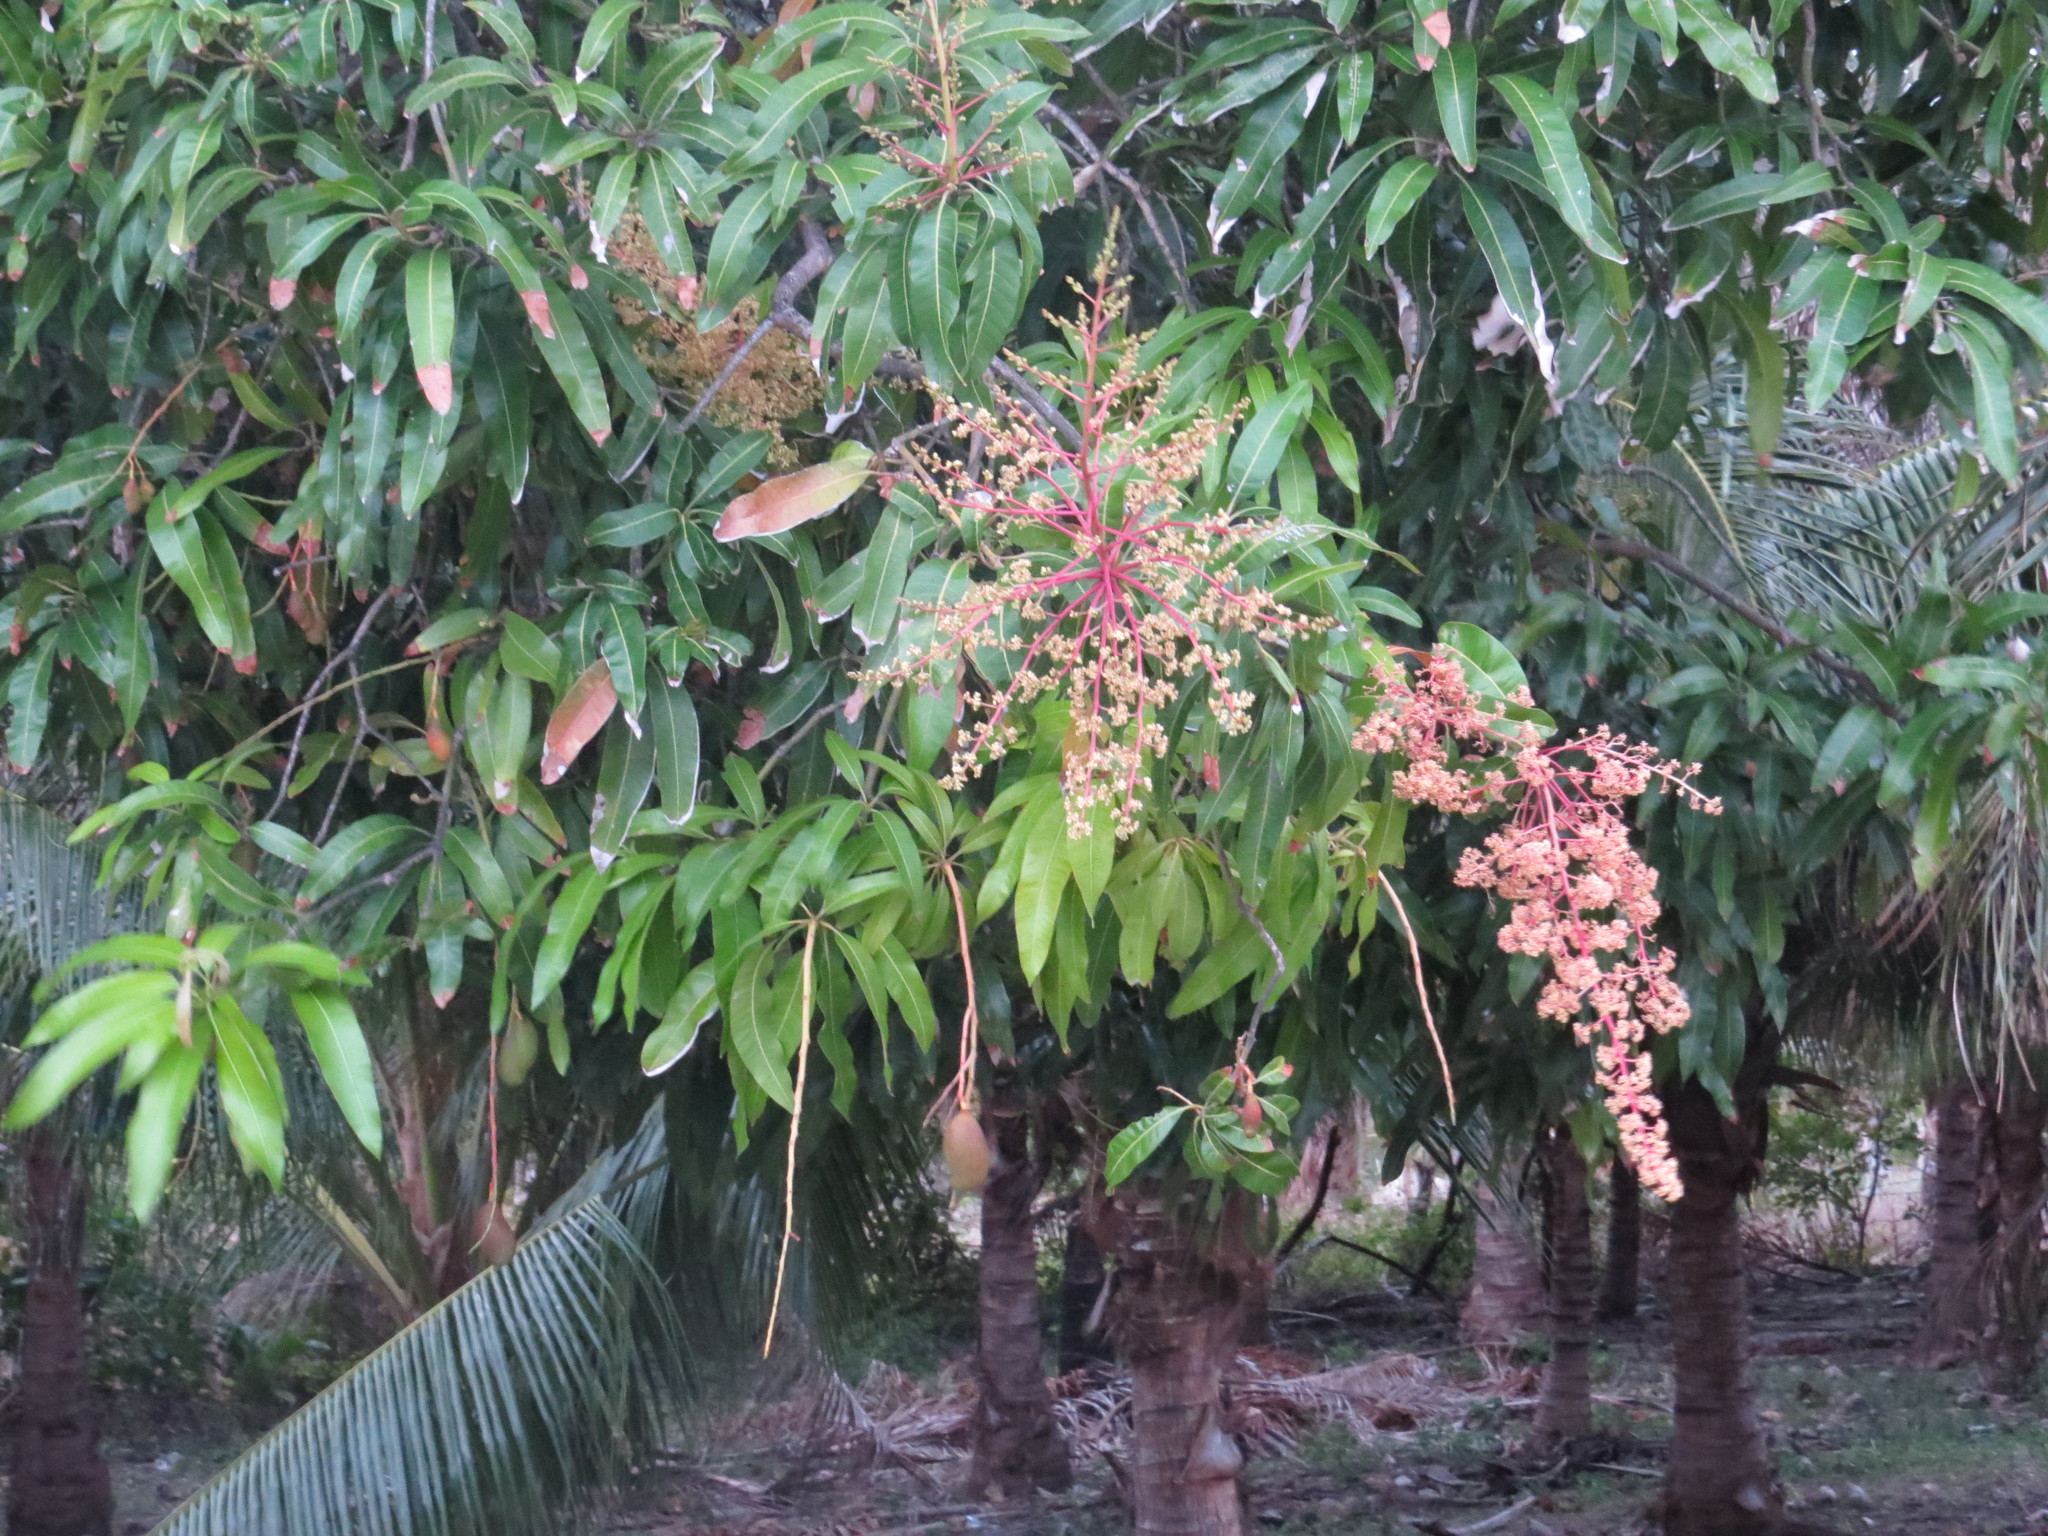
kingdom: Plantae
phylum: Tracheophyta
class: Magnoliopsida
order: Sapindales
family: Anacardiaceae
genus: Mangifera
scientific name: Mangifera indica
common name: Mango
